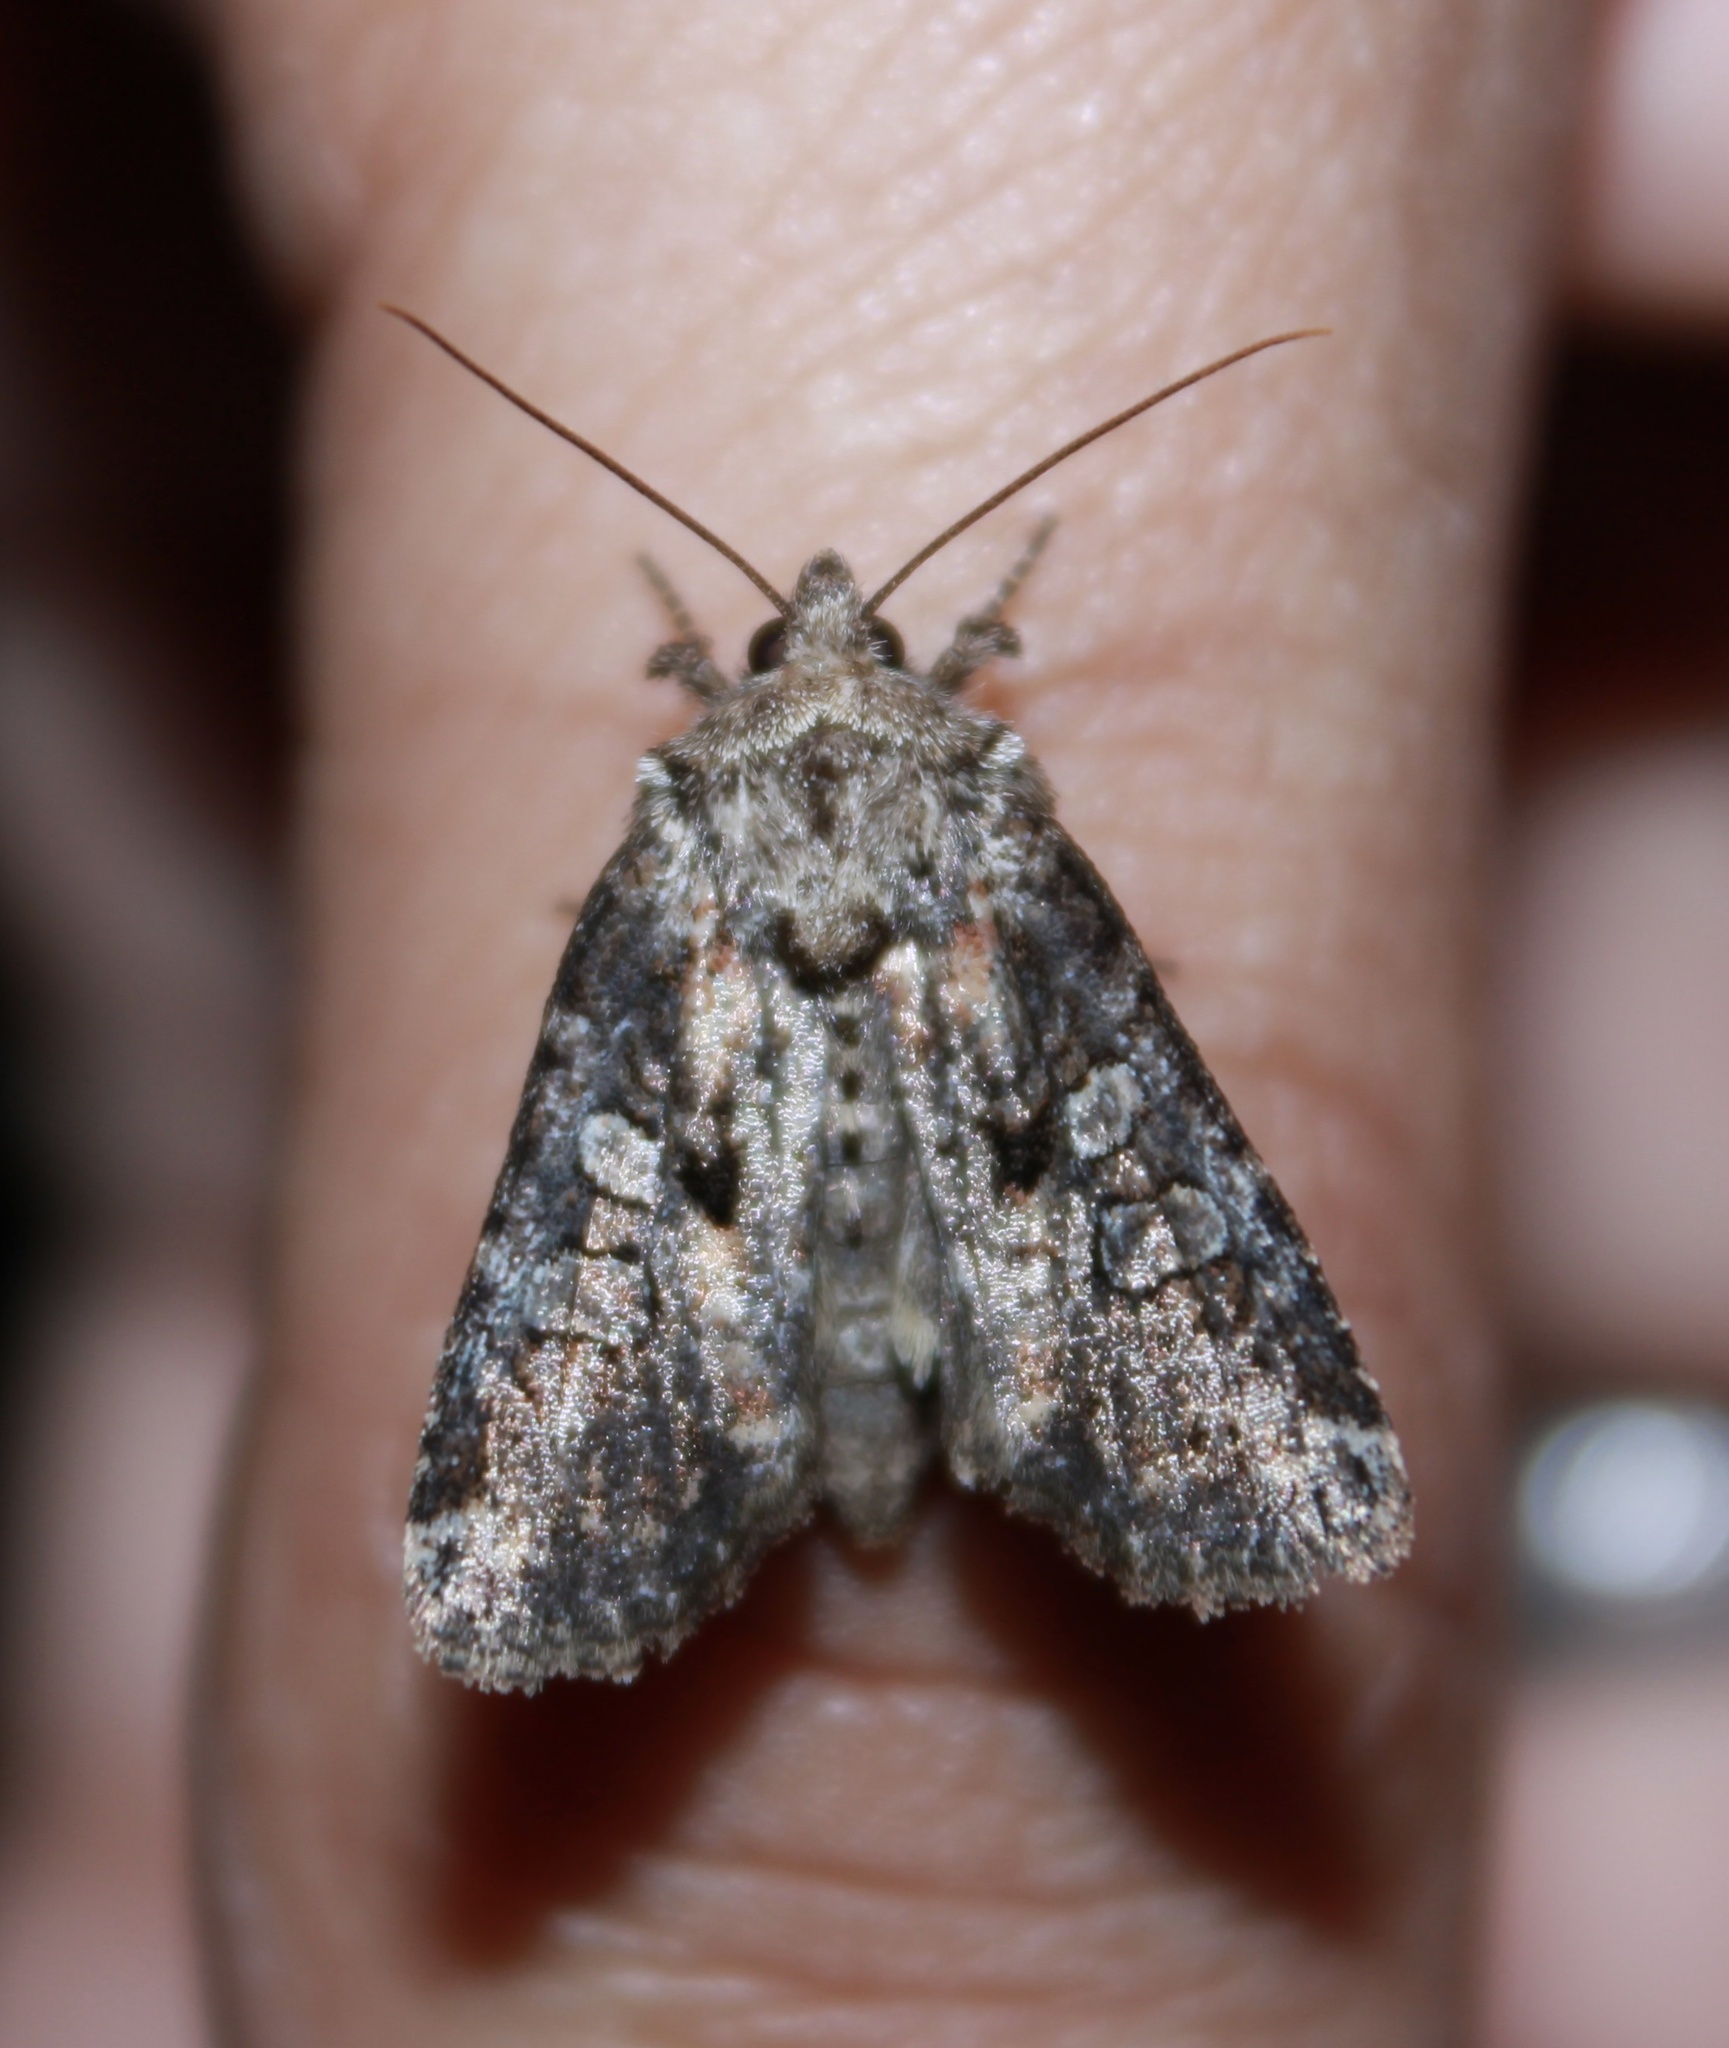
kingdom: Animalia
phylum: Arthropoda
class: Insecta
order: Lepidoptera
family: Noctuidae
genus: Orthodes
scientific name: Orthodes detracta
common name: Disparaged arches moth
